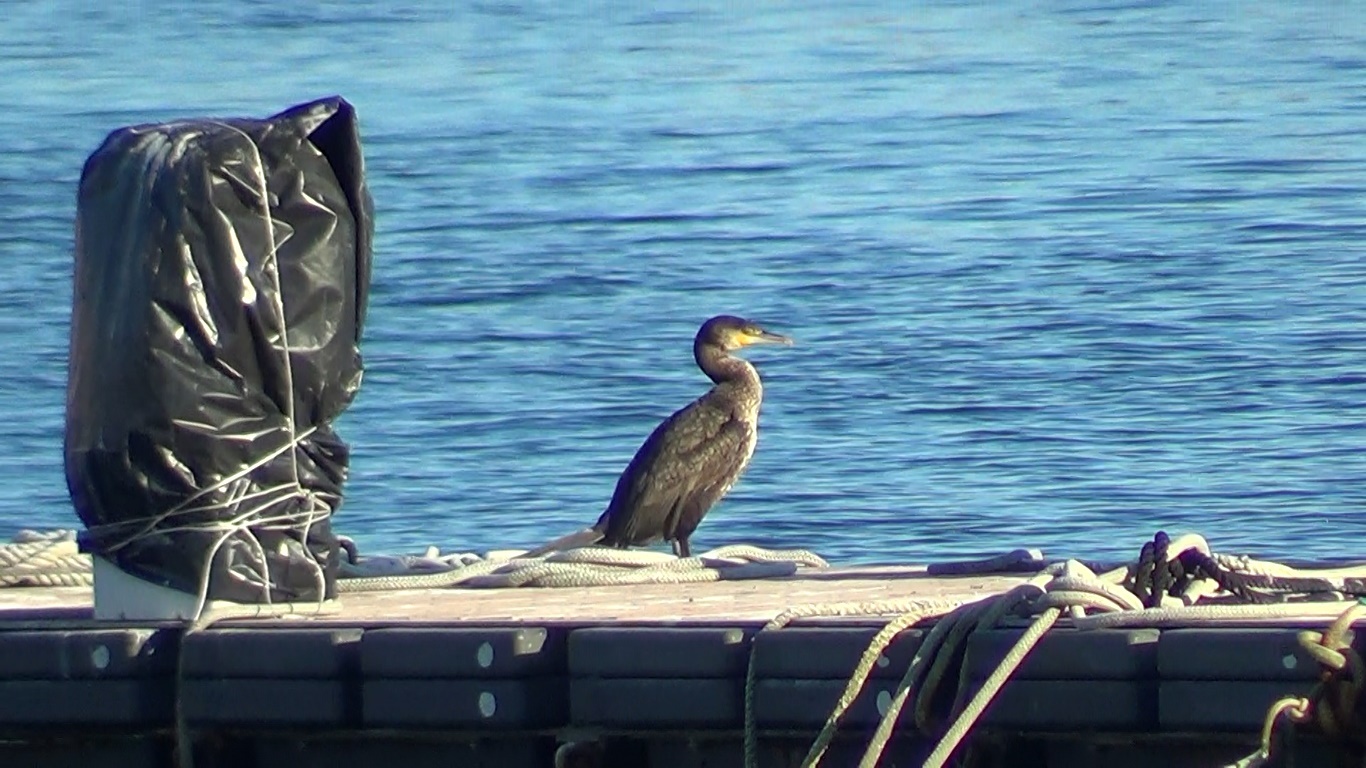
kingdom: Animalia
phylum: Chordata
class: Aves
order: Suliformes
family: Phalacrocoracidae
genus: Phalacrocorax
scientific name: Phalacrocorax carbo
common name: Great cormorant
